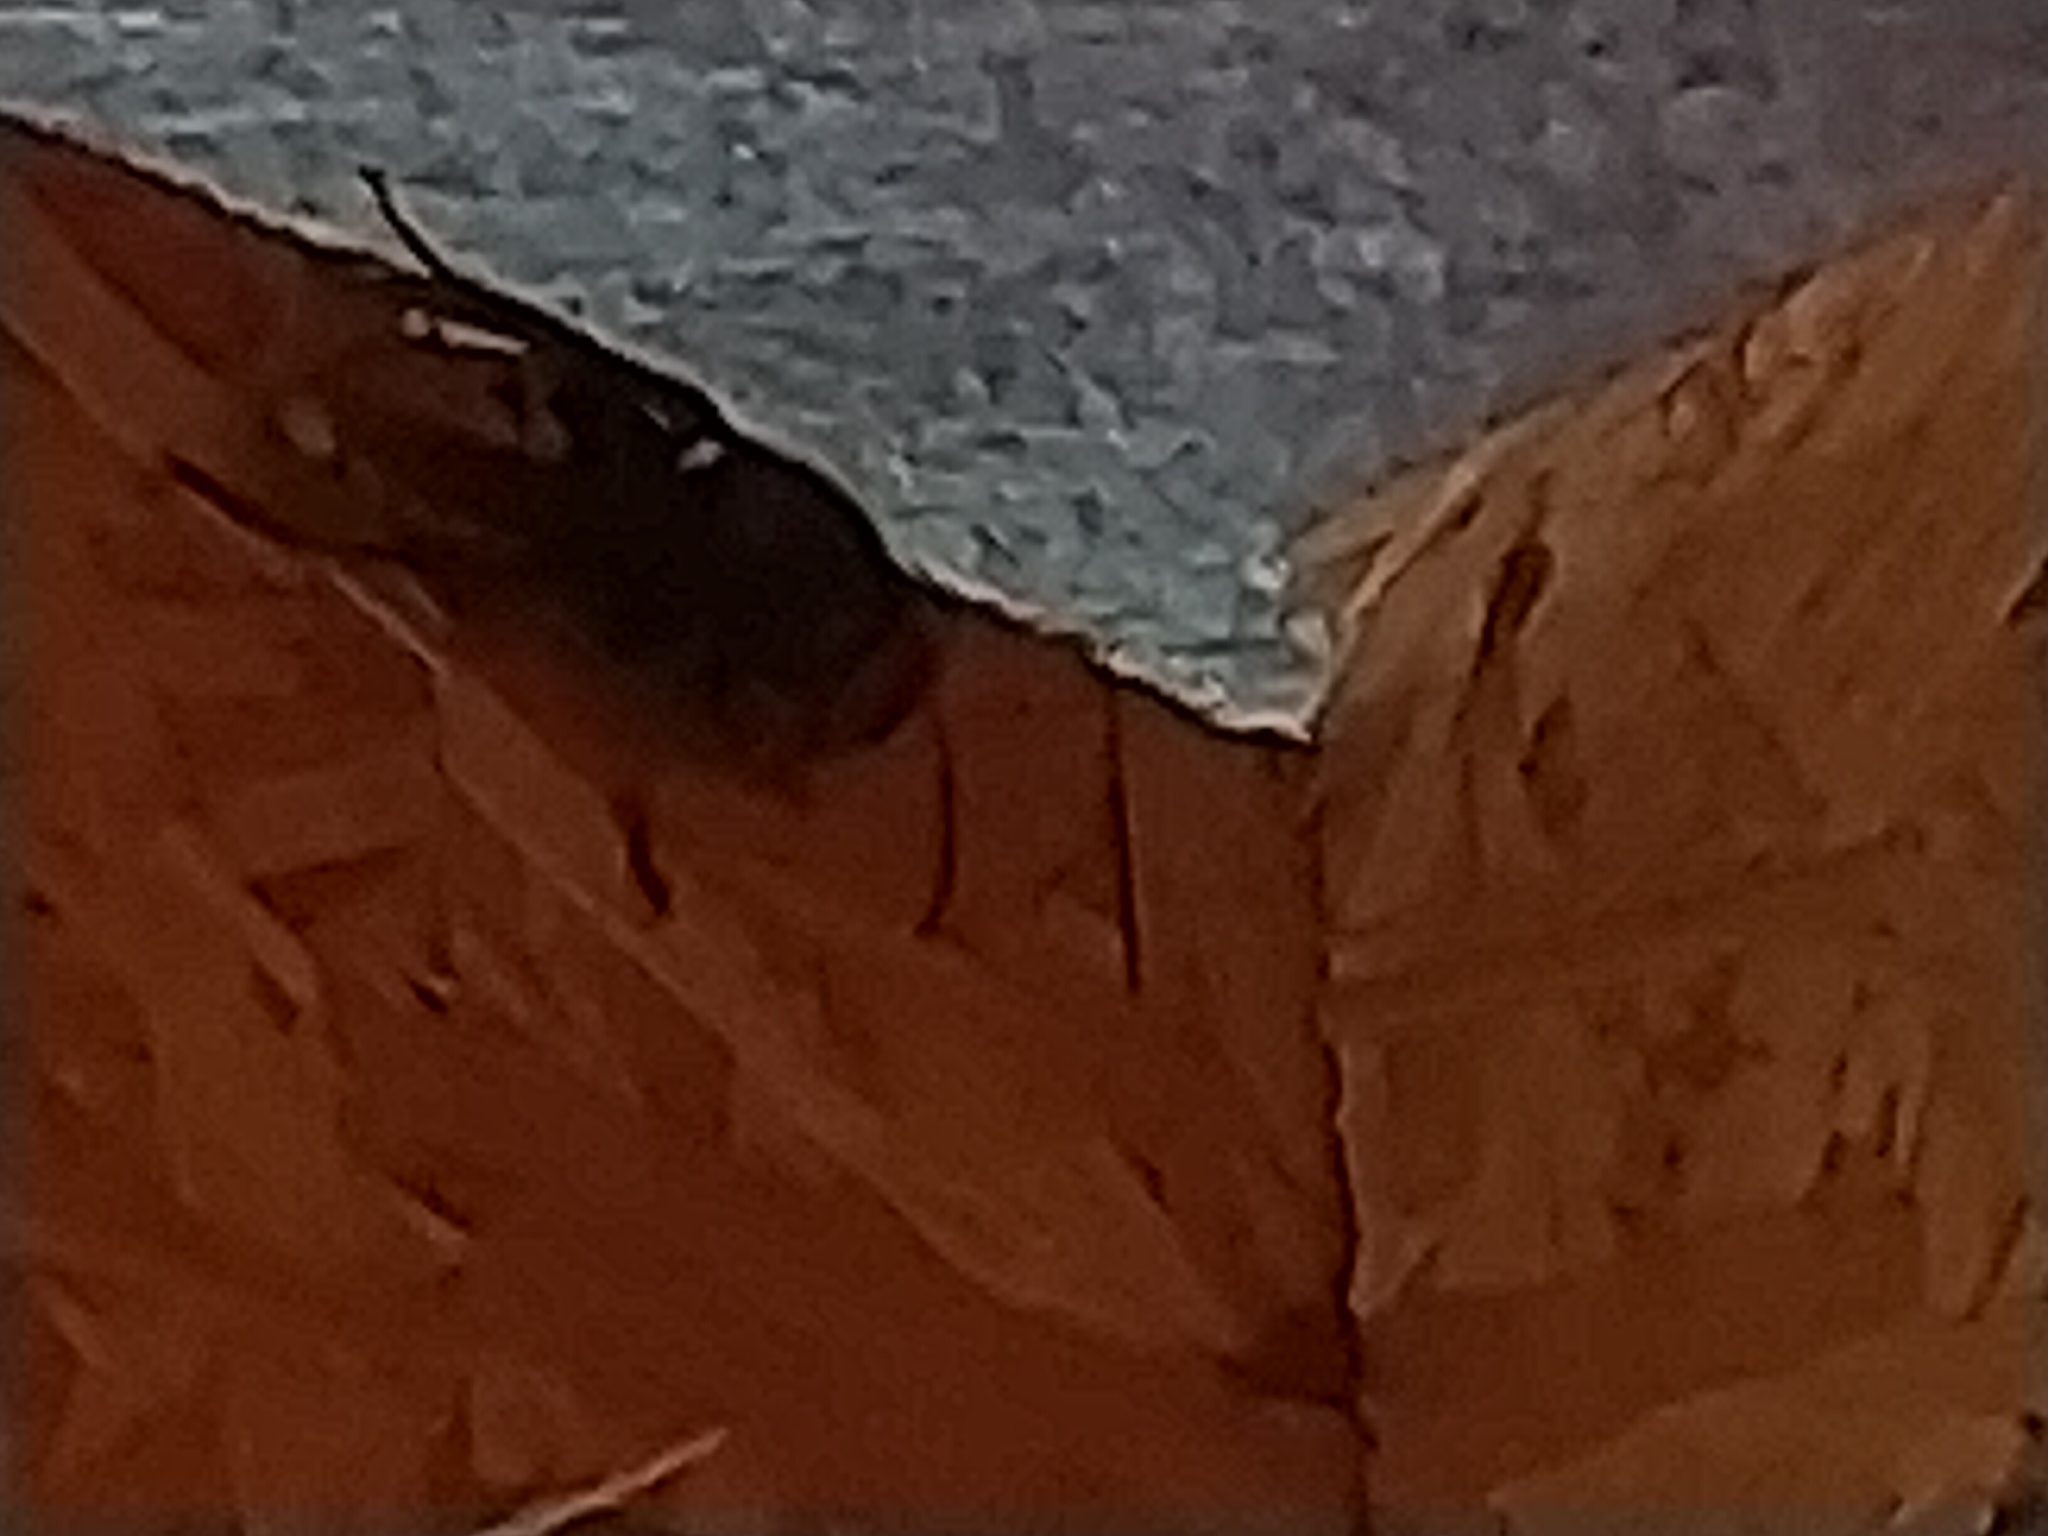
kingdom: Animalia
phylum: Arthropoda
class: Insecta
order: Hymenoptera
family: Vespidae
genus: Vespa
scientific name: Vespa crabro
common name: Hornet
